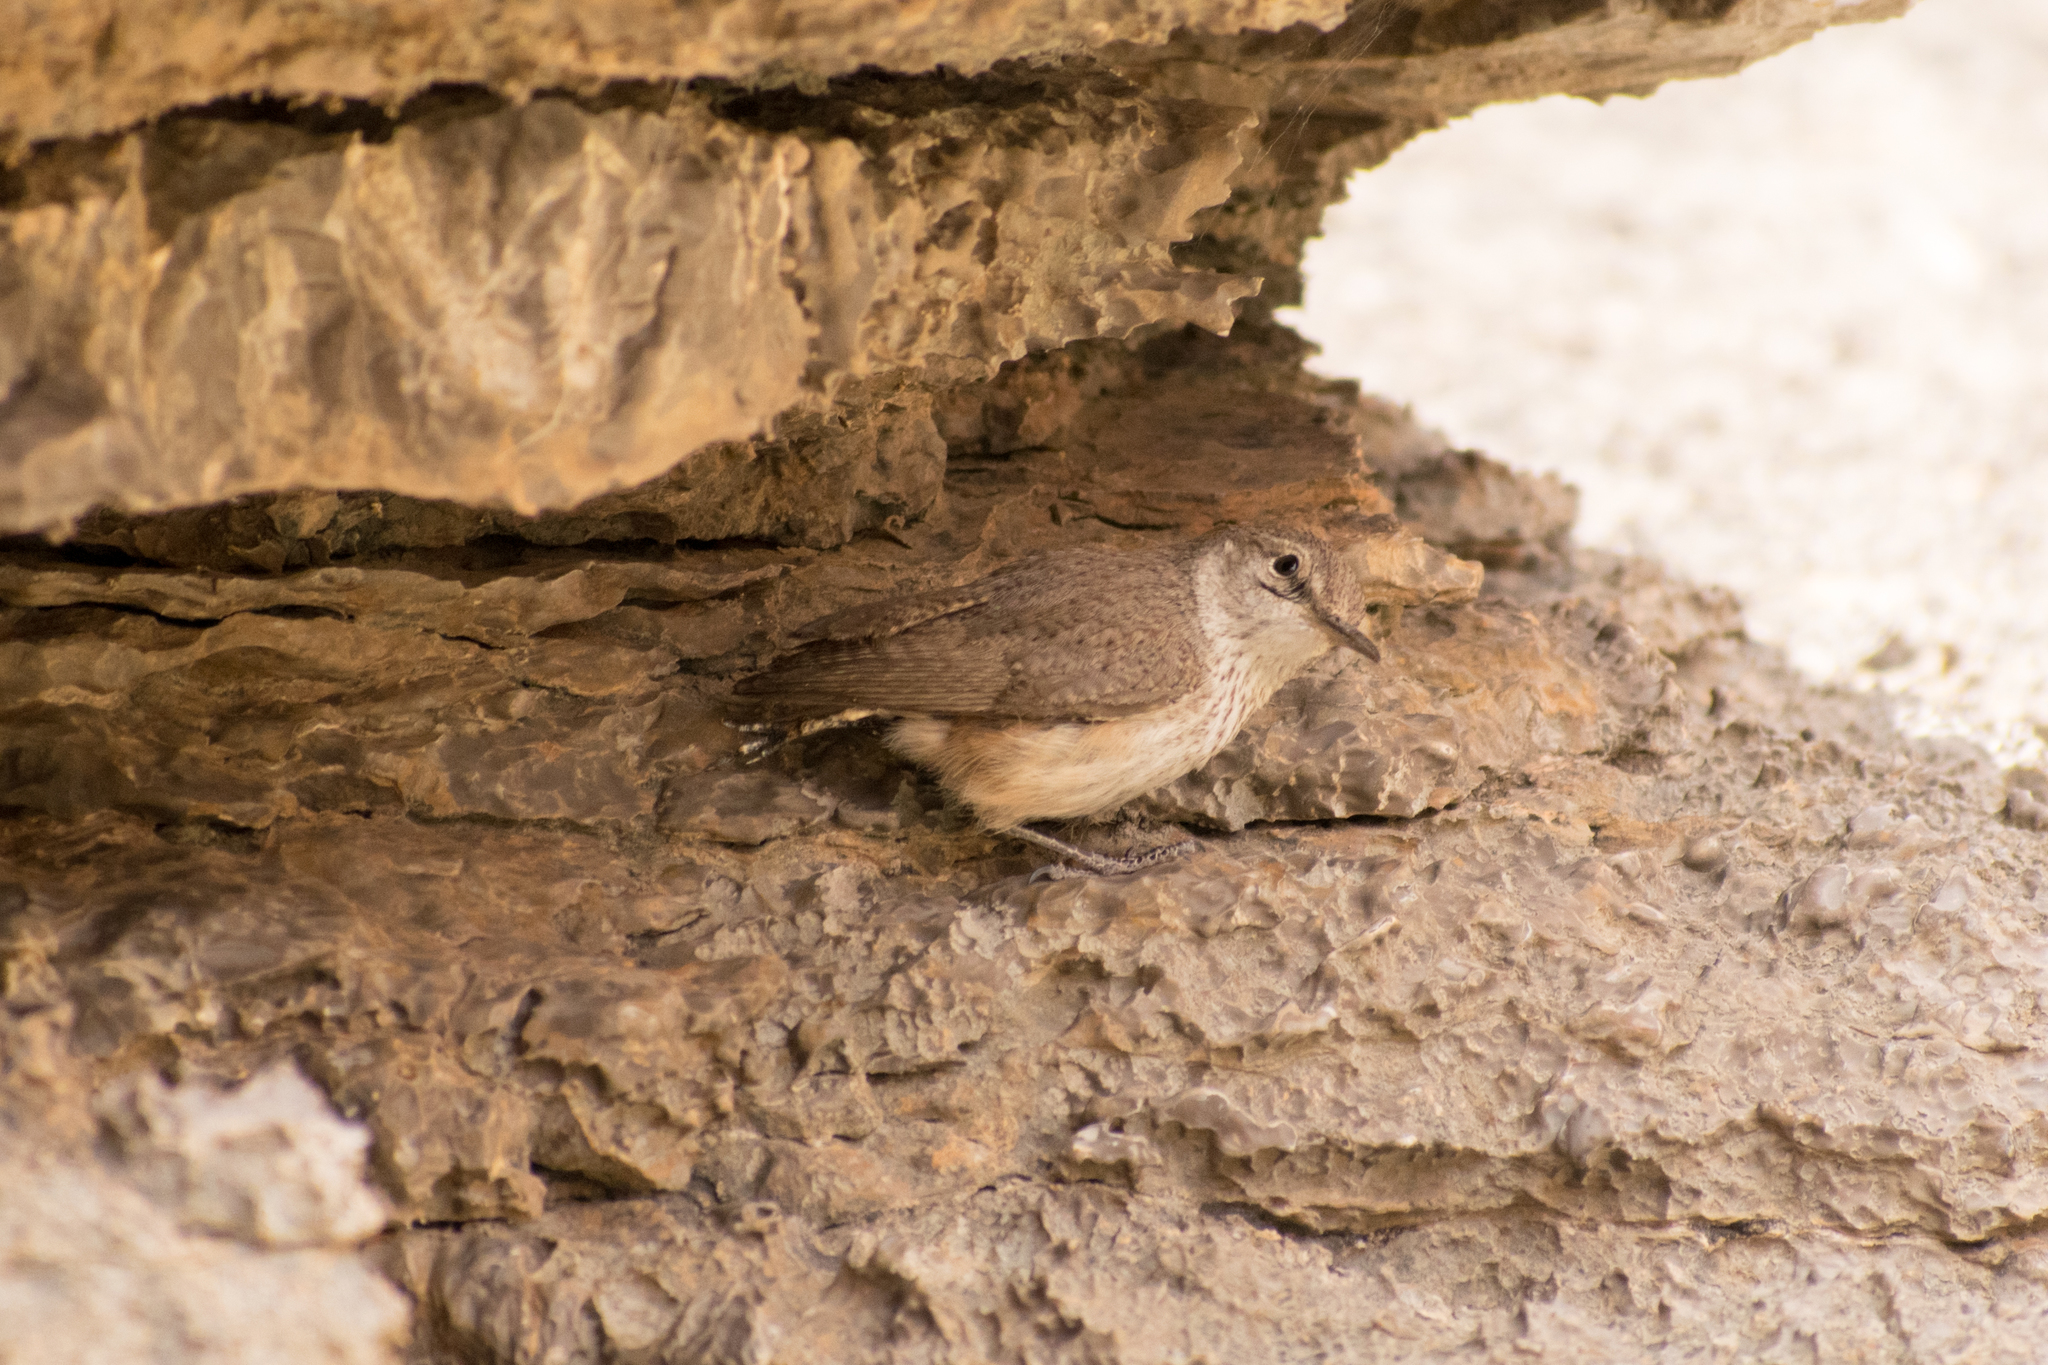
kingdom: Animalia
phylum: Chordata
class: Aves
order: Passeriformes
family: Troglodytidae
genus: Salpinctes
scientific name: Salpinctes obsoletus
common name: Rock wren
